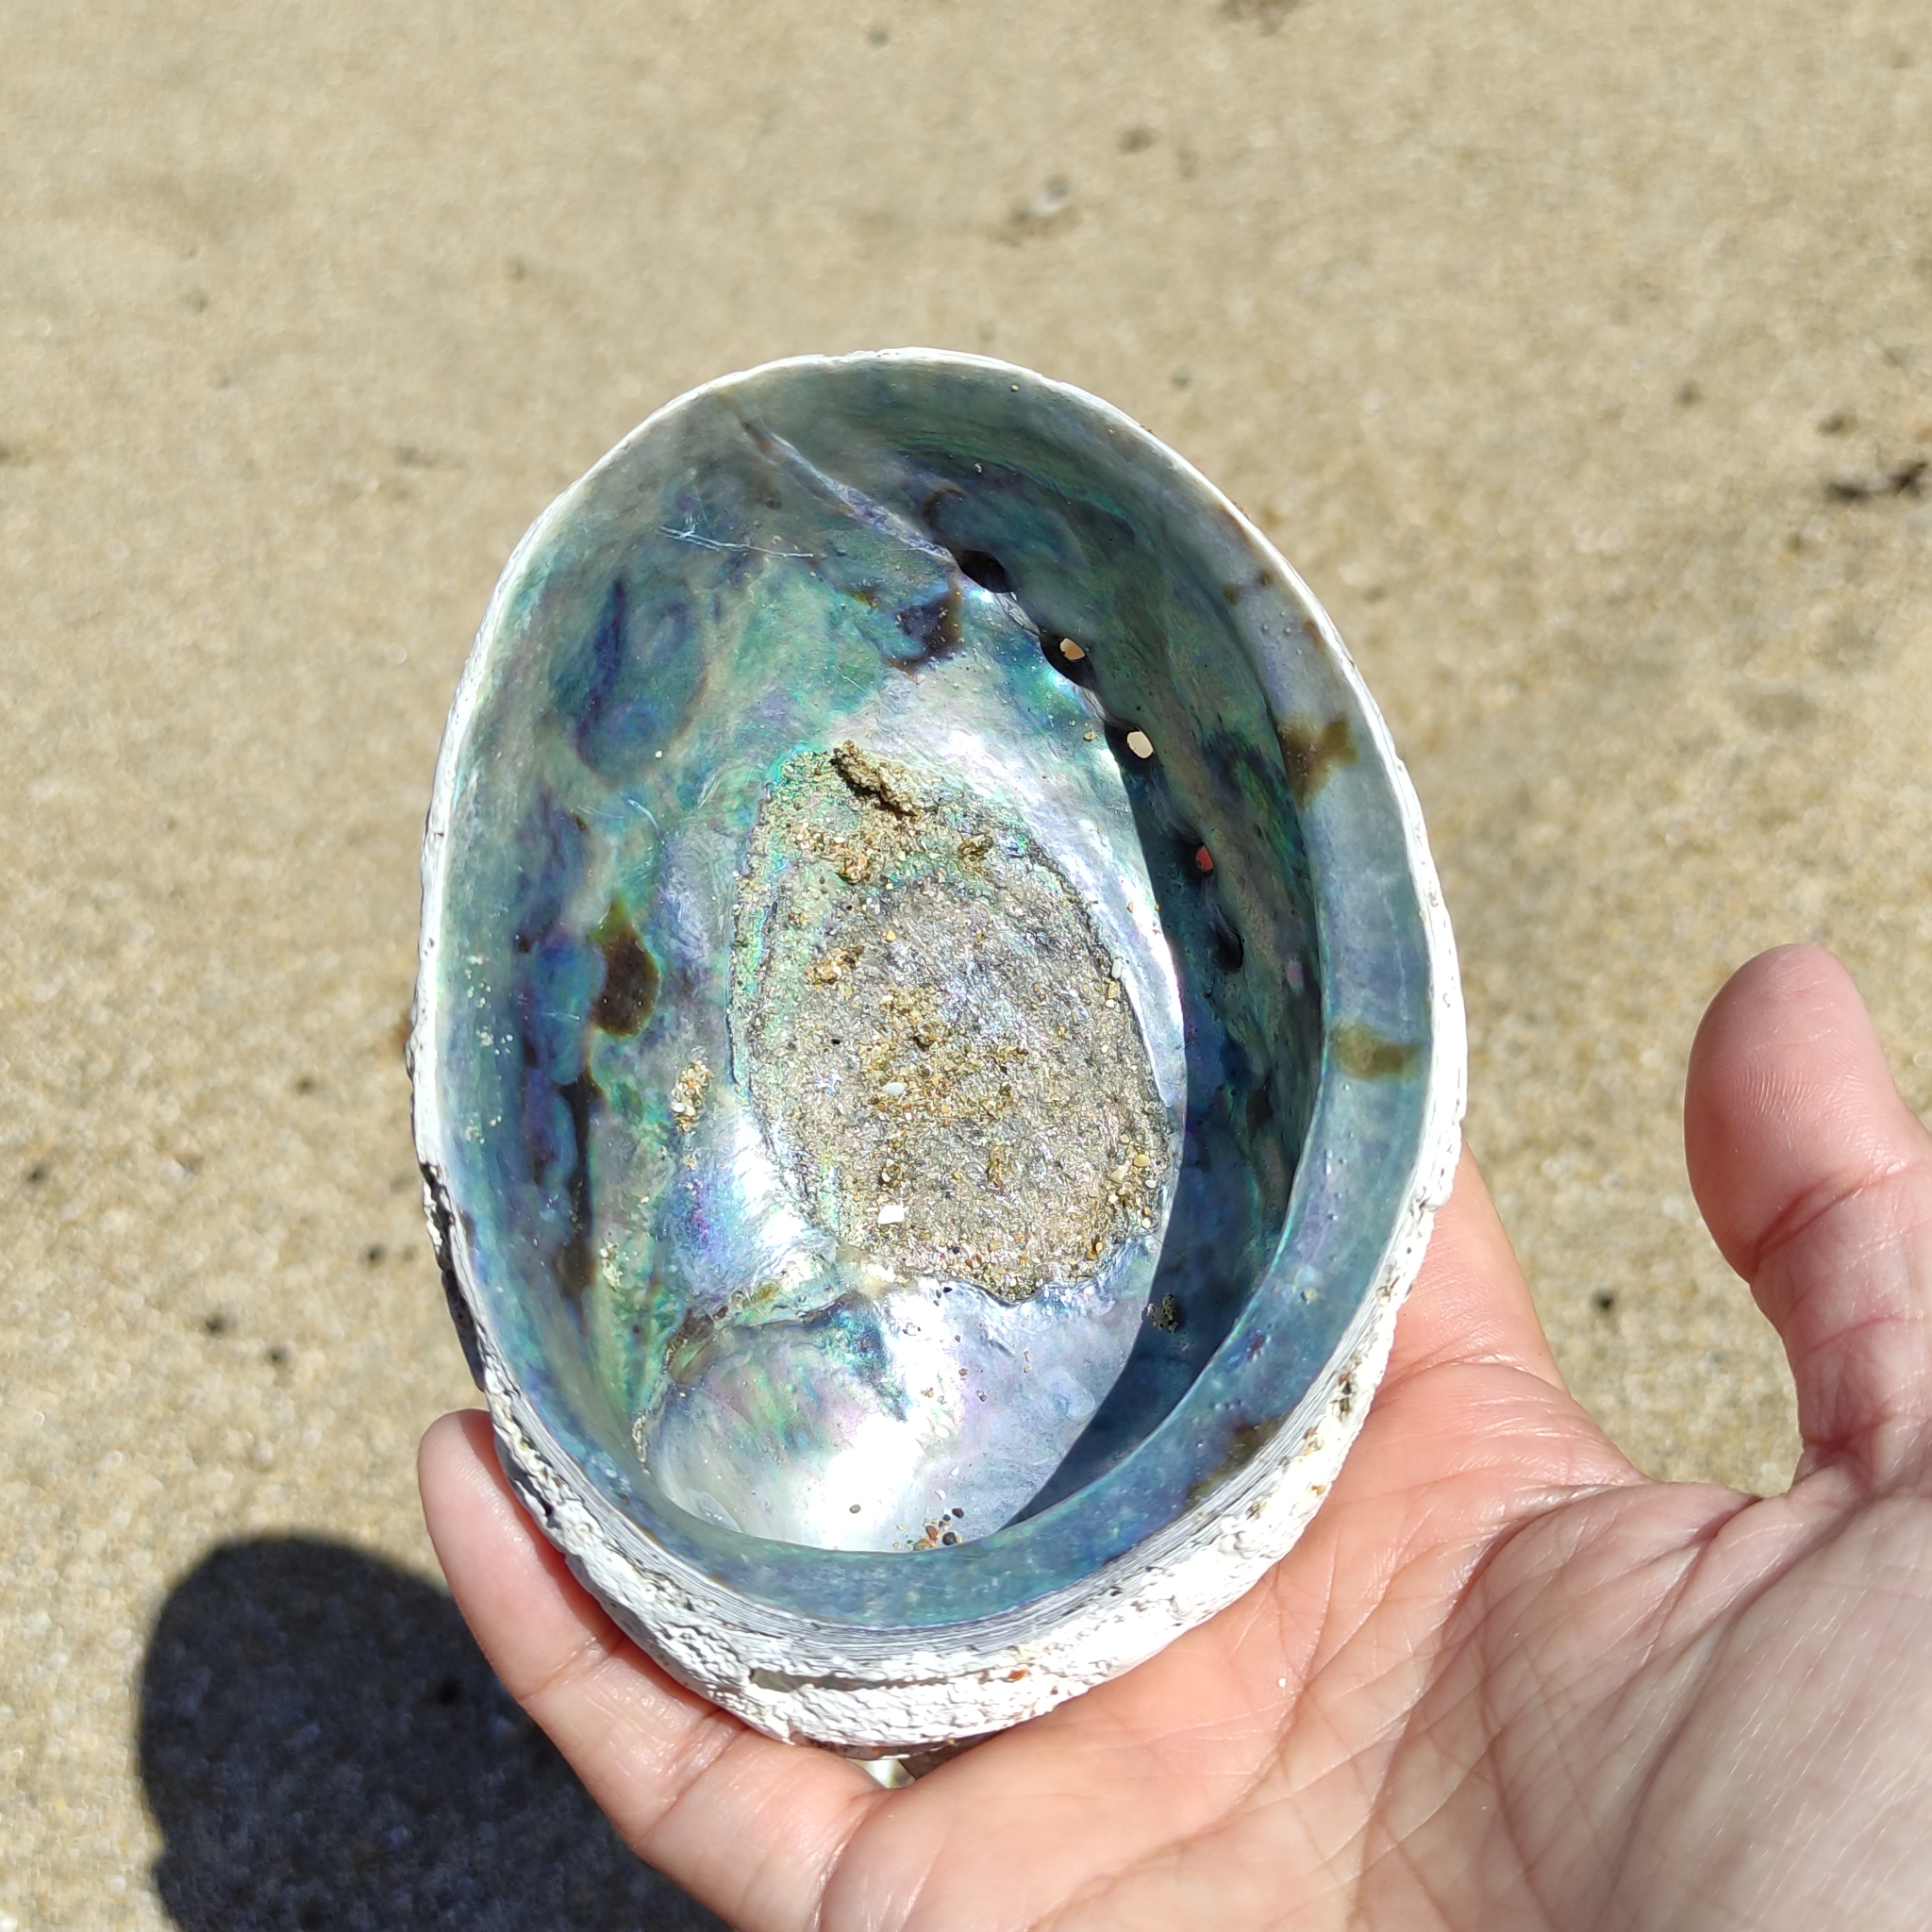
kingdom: Animalia
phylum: Mollusca
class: Gastropoda
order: Lepetellida
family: Haliotidae
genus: Haliotis
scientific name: Haliotis iris
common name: Abalone
